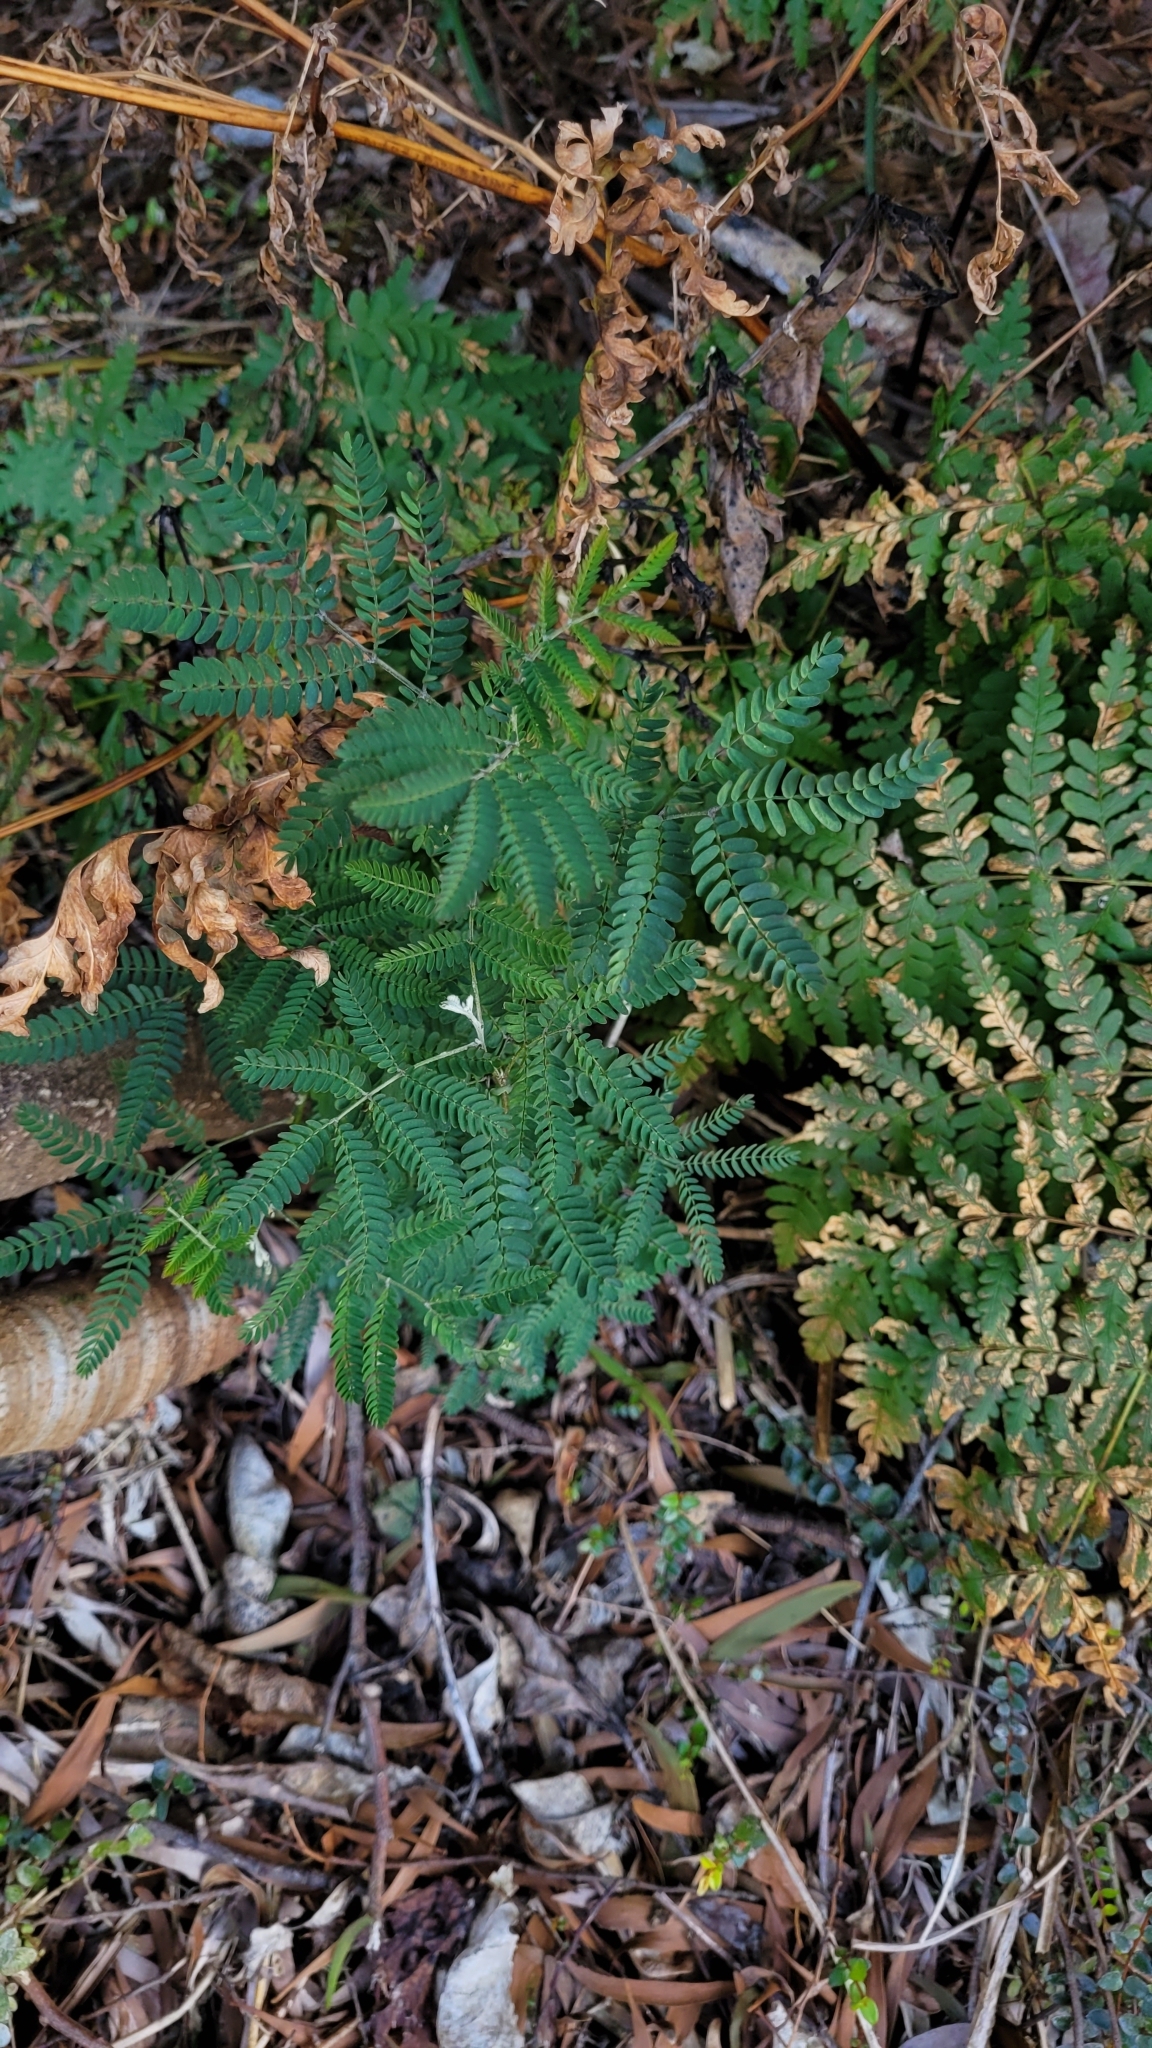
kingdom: Plantae
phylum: Tracheophyta
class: Magnoliopsida
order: Fabales
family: Fabaceae
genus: Acacia
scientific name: Acacia melanoxylon
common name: Blackwood
